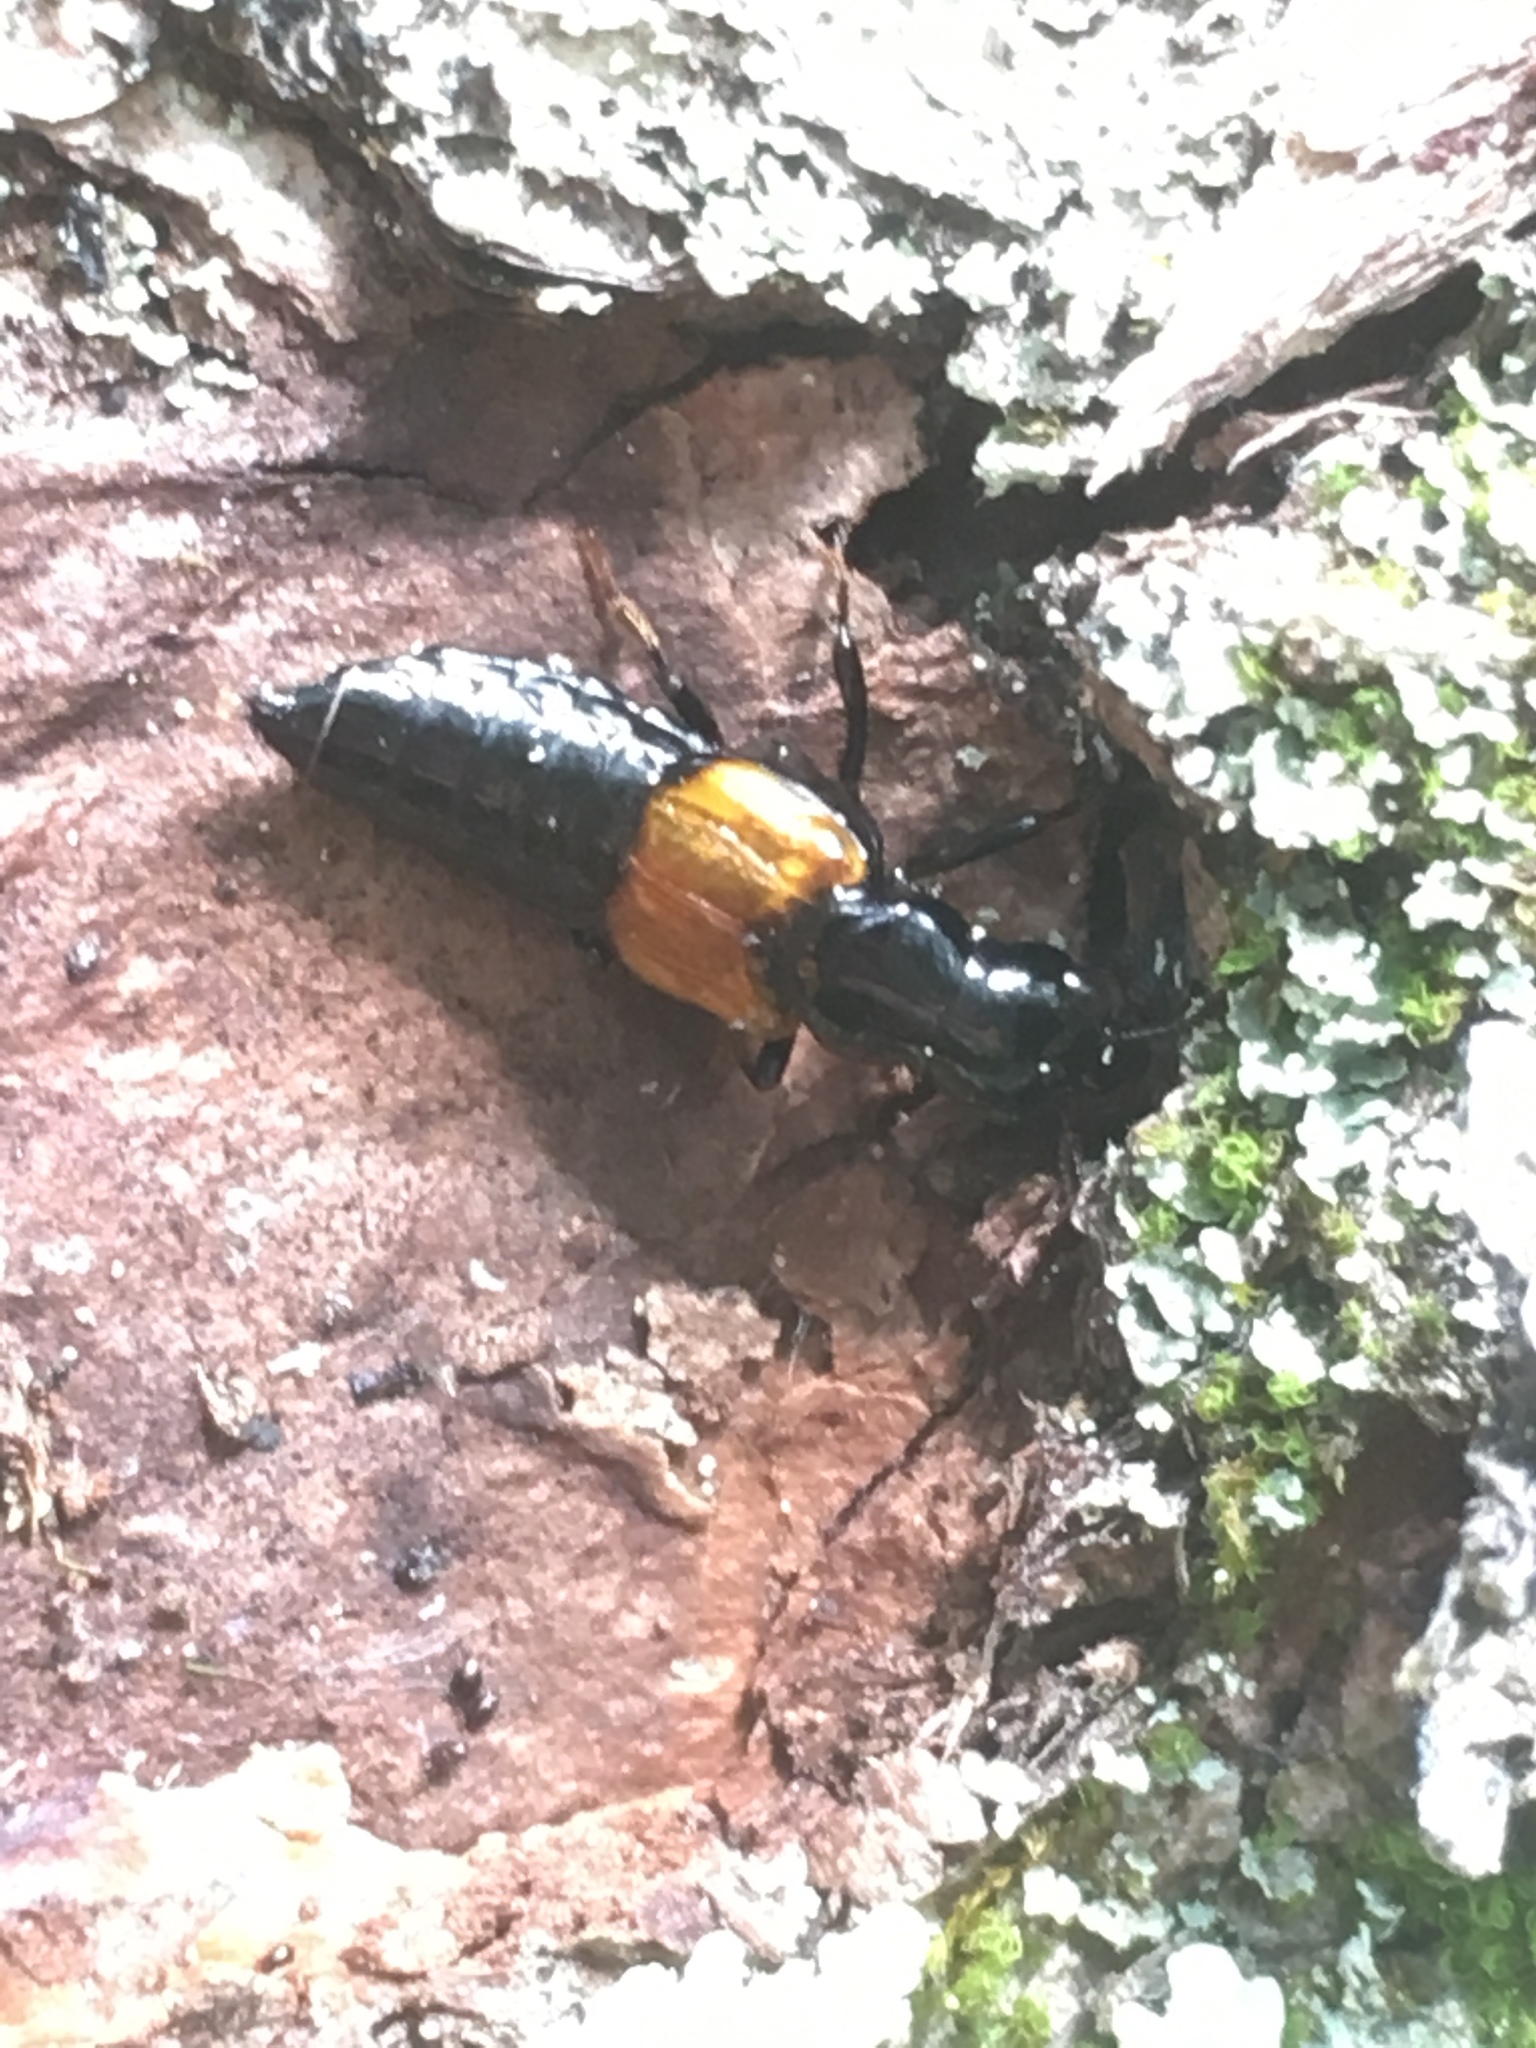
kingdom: Animalia
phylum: Arthropoda
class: Insecta
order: Coleoptera
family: Staphylinidae
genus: Oxyporus
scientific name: Oxyporus rufipennis
